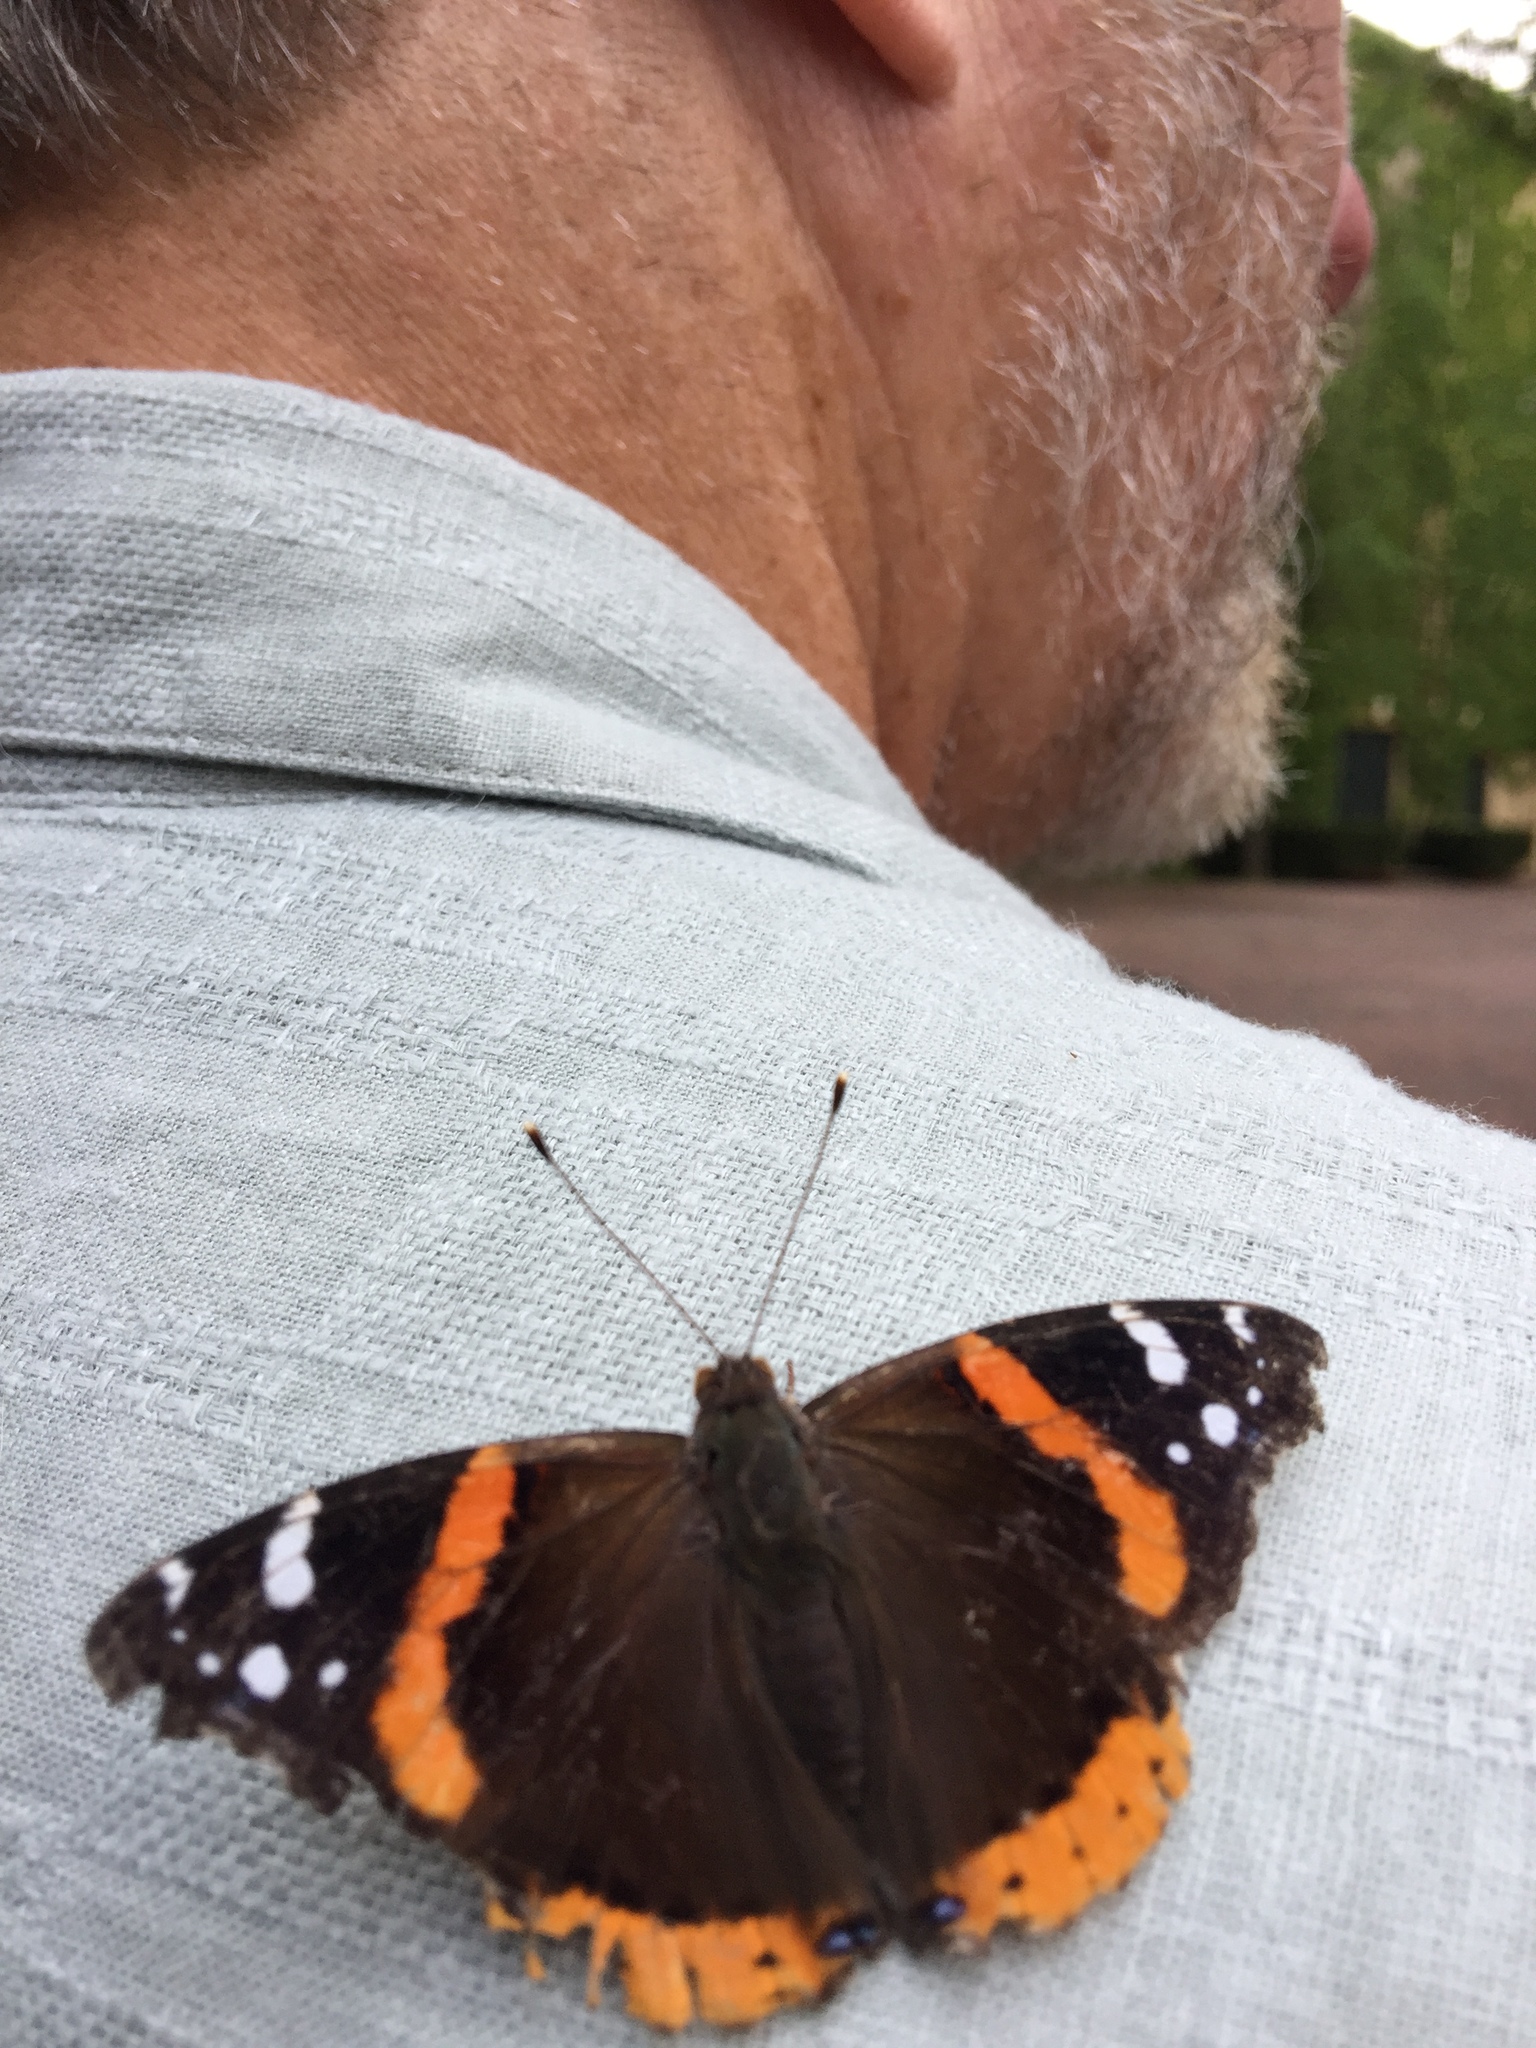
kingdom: Animalia
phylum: Arthropoda
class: Insecta
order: Lepidoptera
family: Nymphalidae
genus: Vanessa
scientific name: Vanessa atalanta
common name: Red admiral
